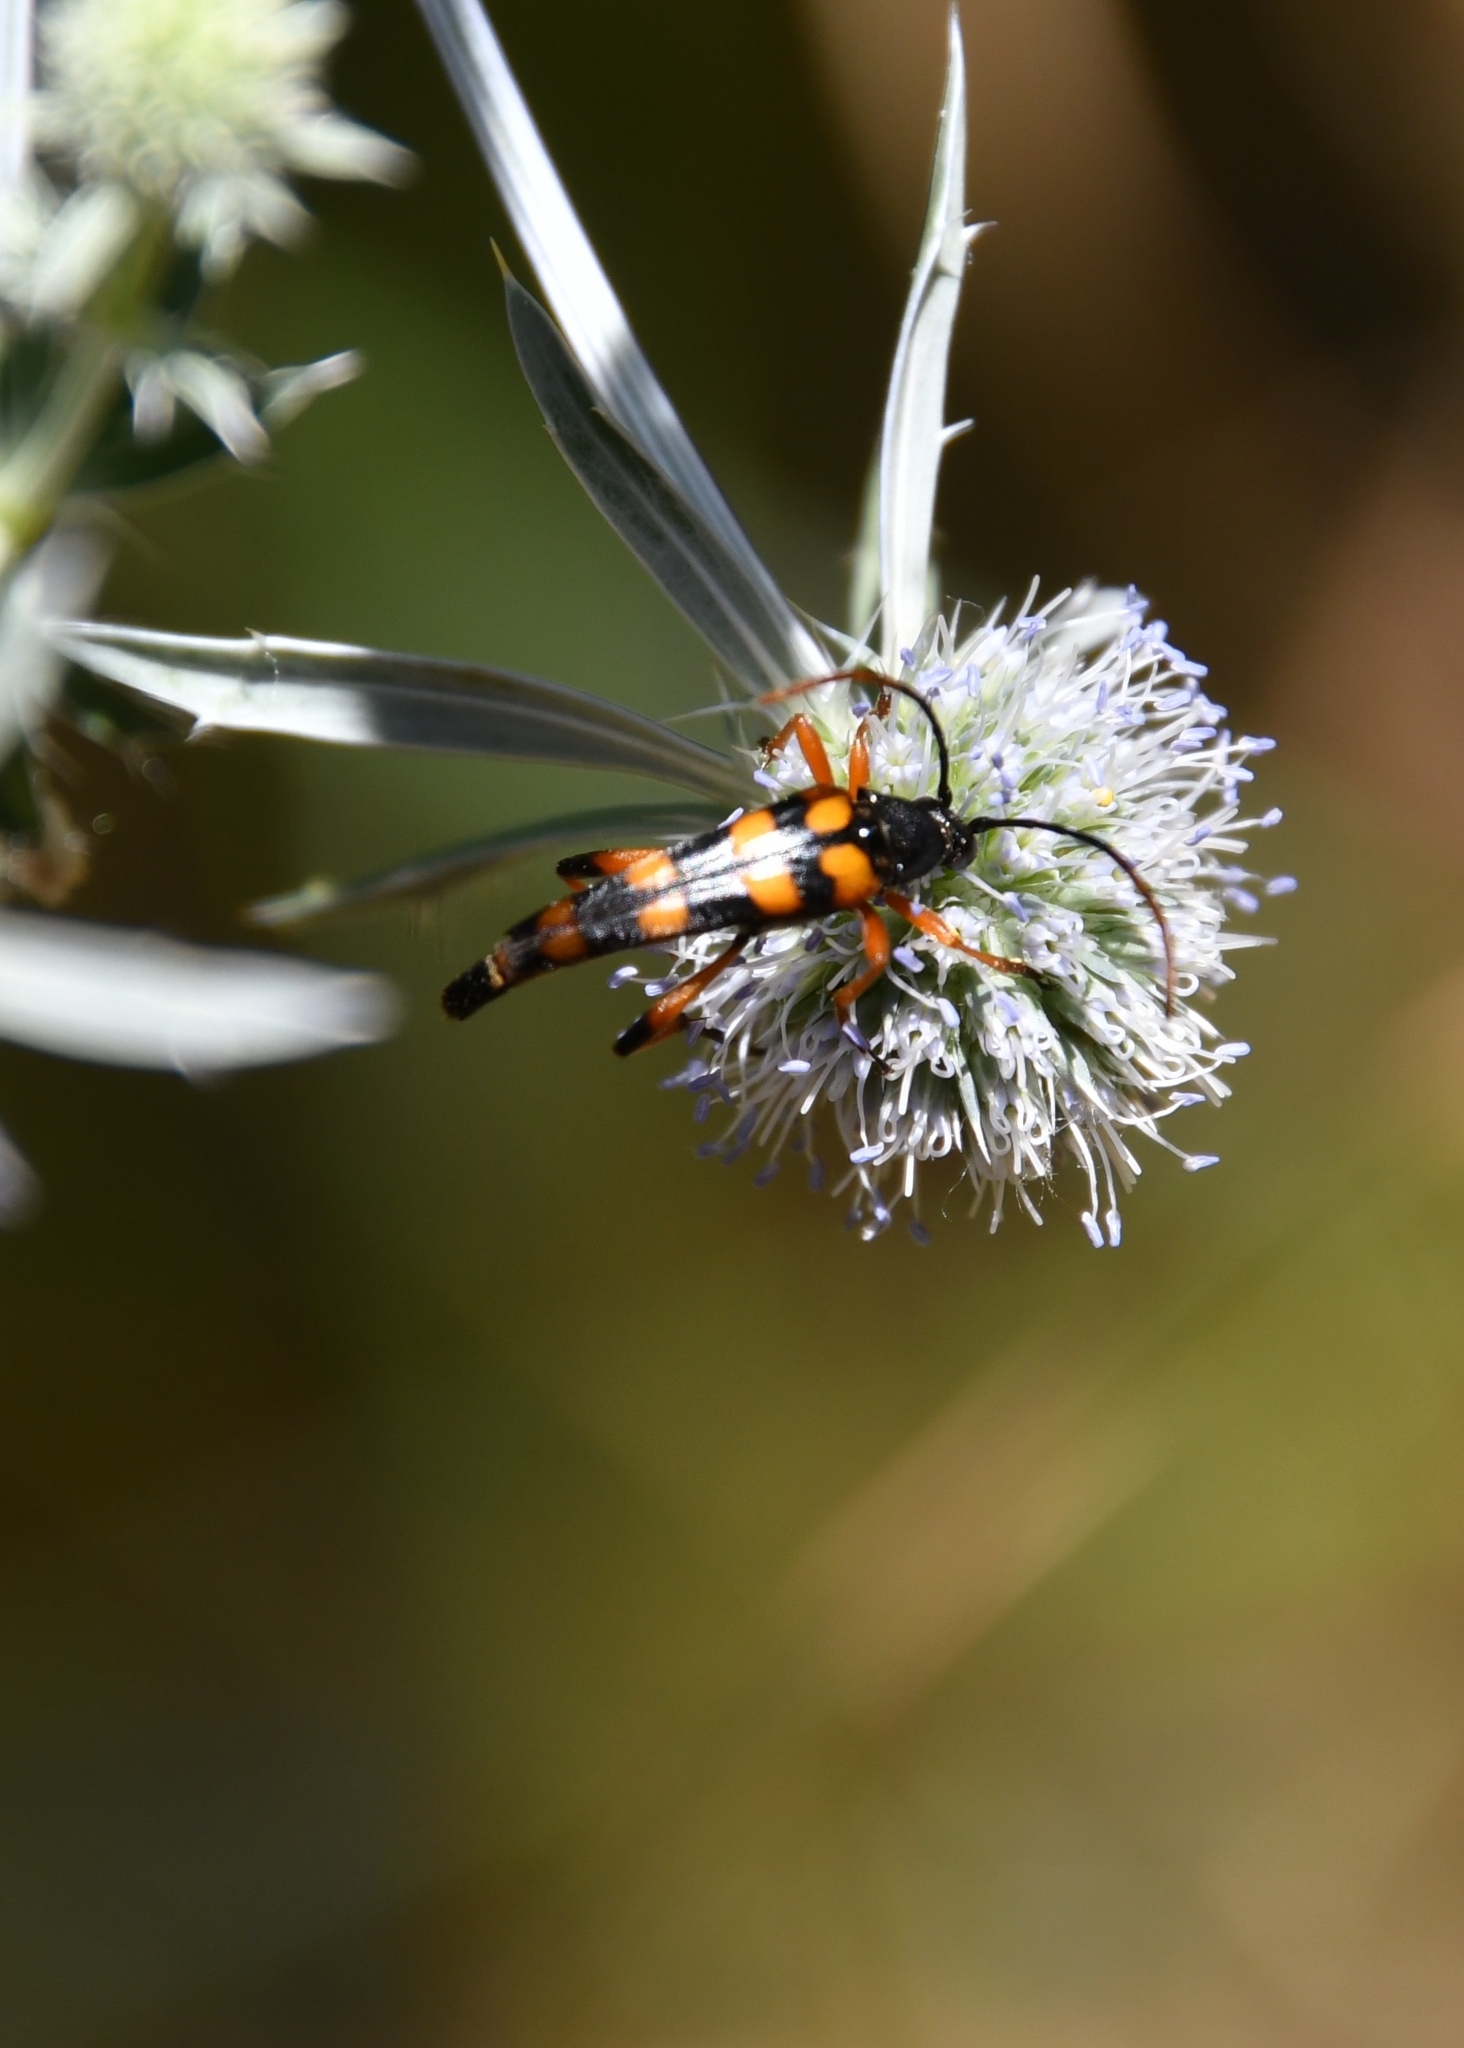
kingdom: Animalia
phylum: Arthropoda
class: Insecta
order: Coleoptera
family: Cerambycidae
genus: Strangalia
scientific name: Strangalia attenuata
